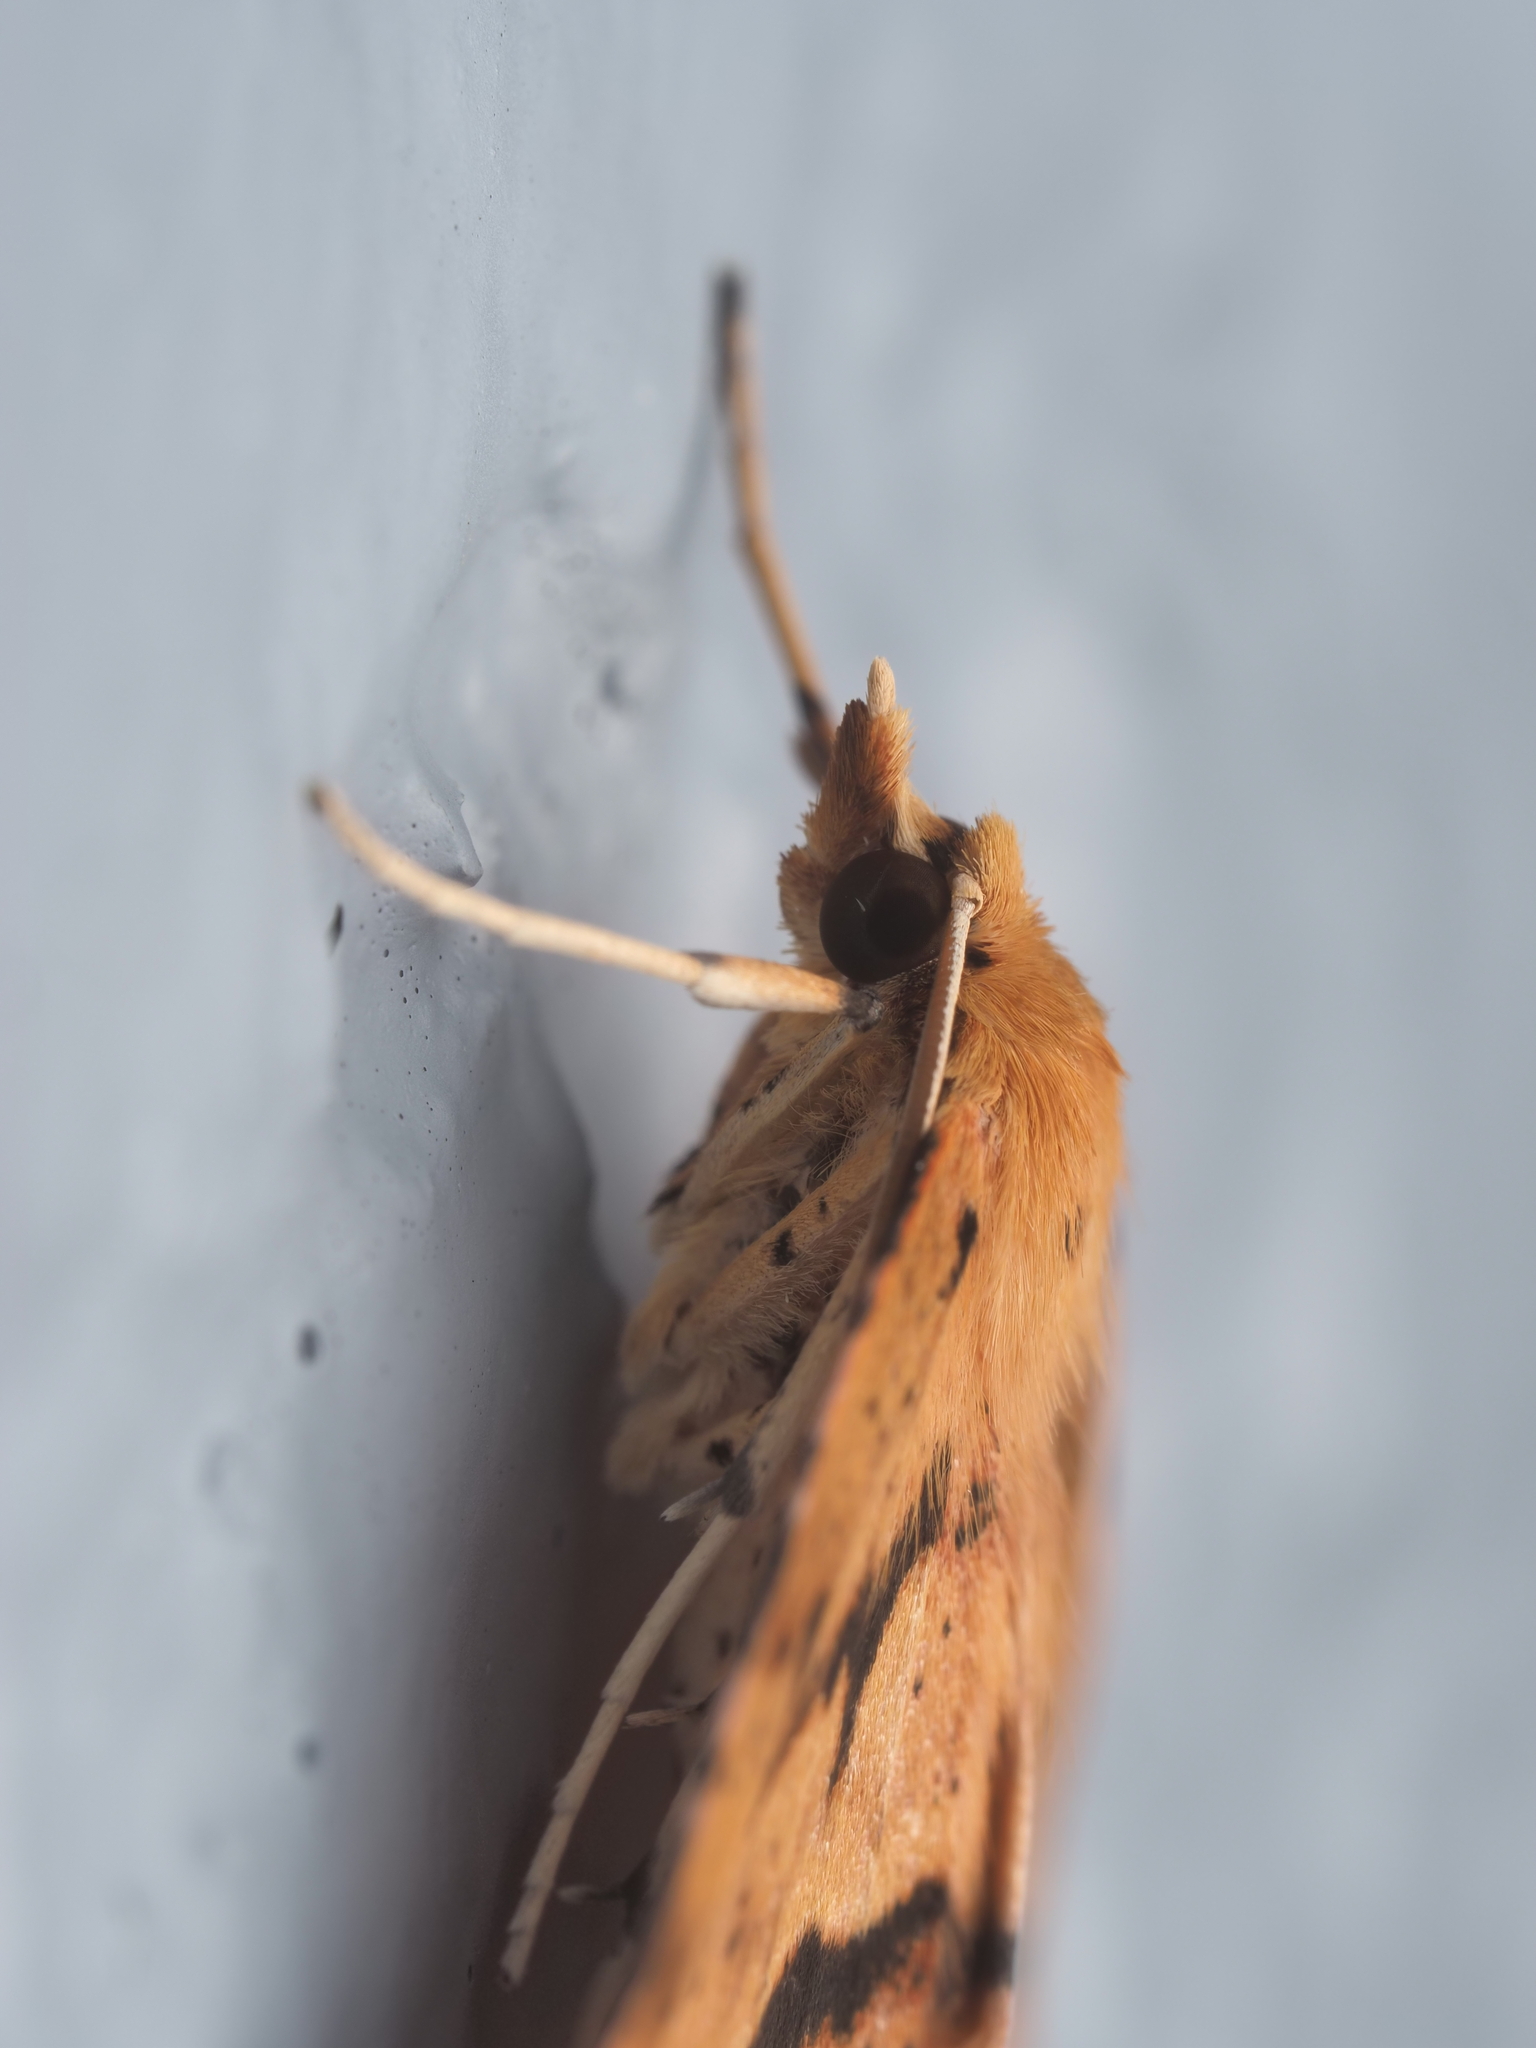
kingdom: Animalia
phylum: Arthropoda
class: Insecta
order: Lepidoptera
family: Geometridae
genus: Ischalis
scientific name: Ischalis variabilis
